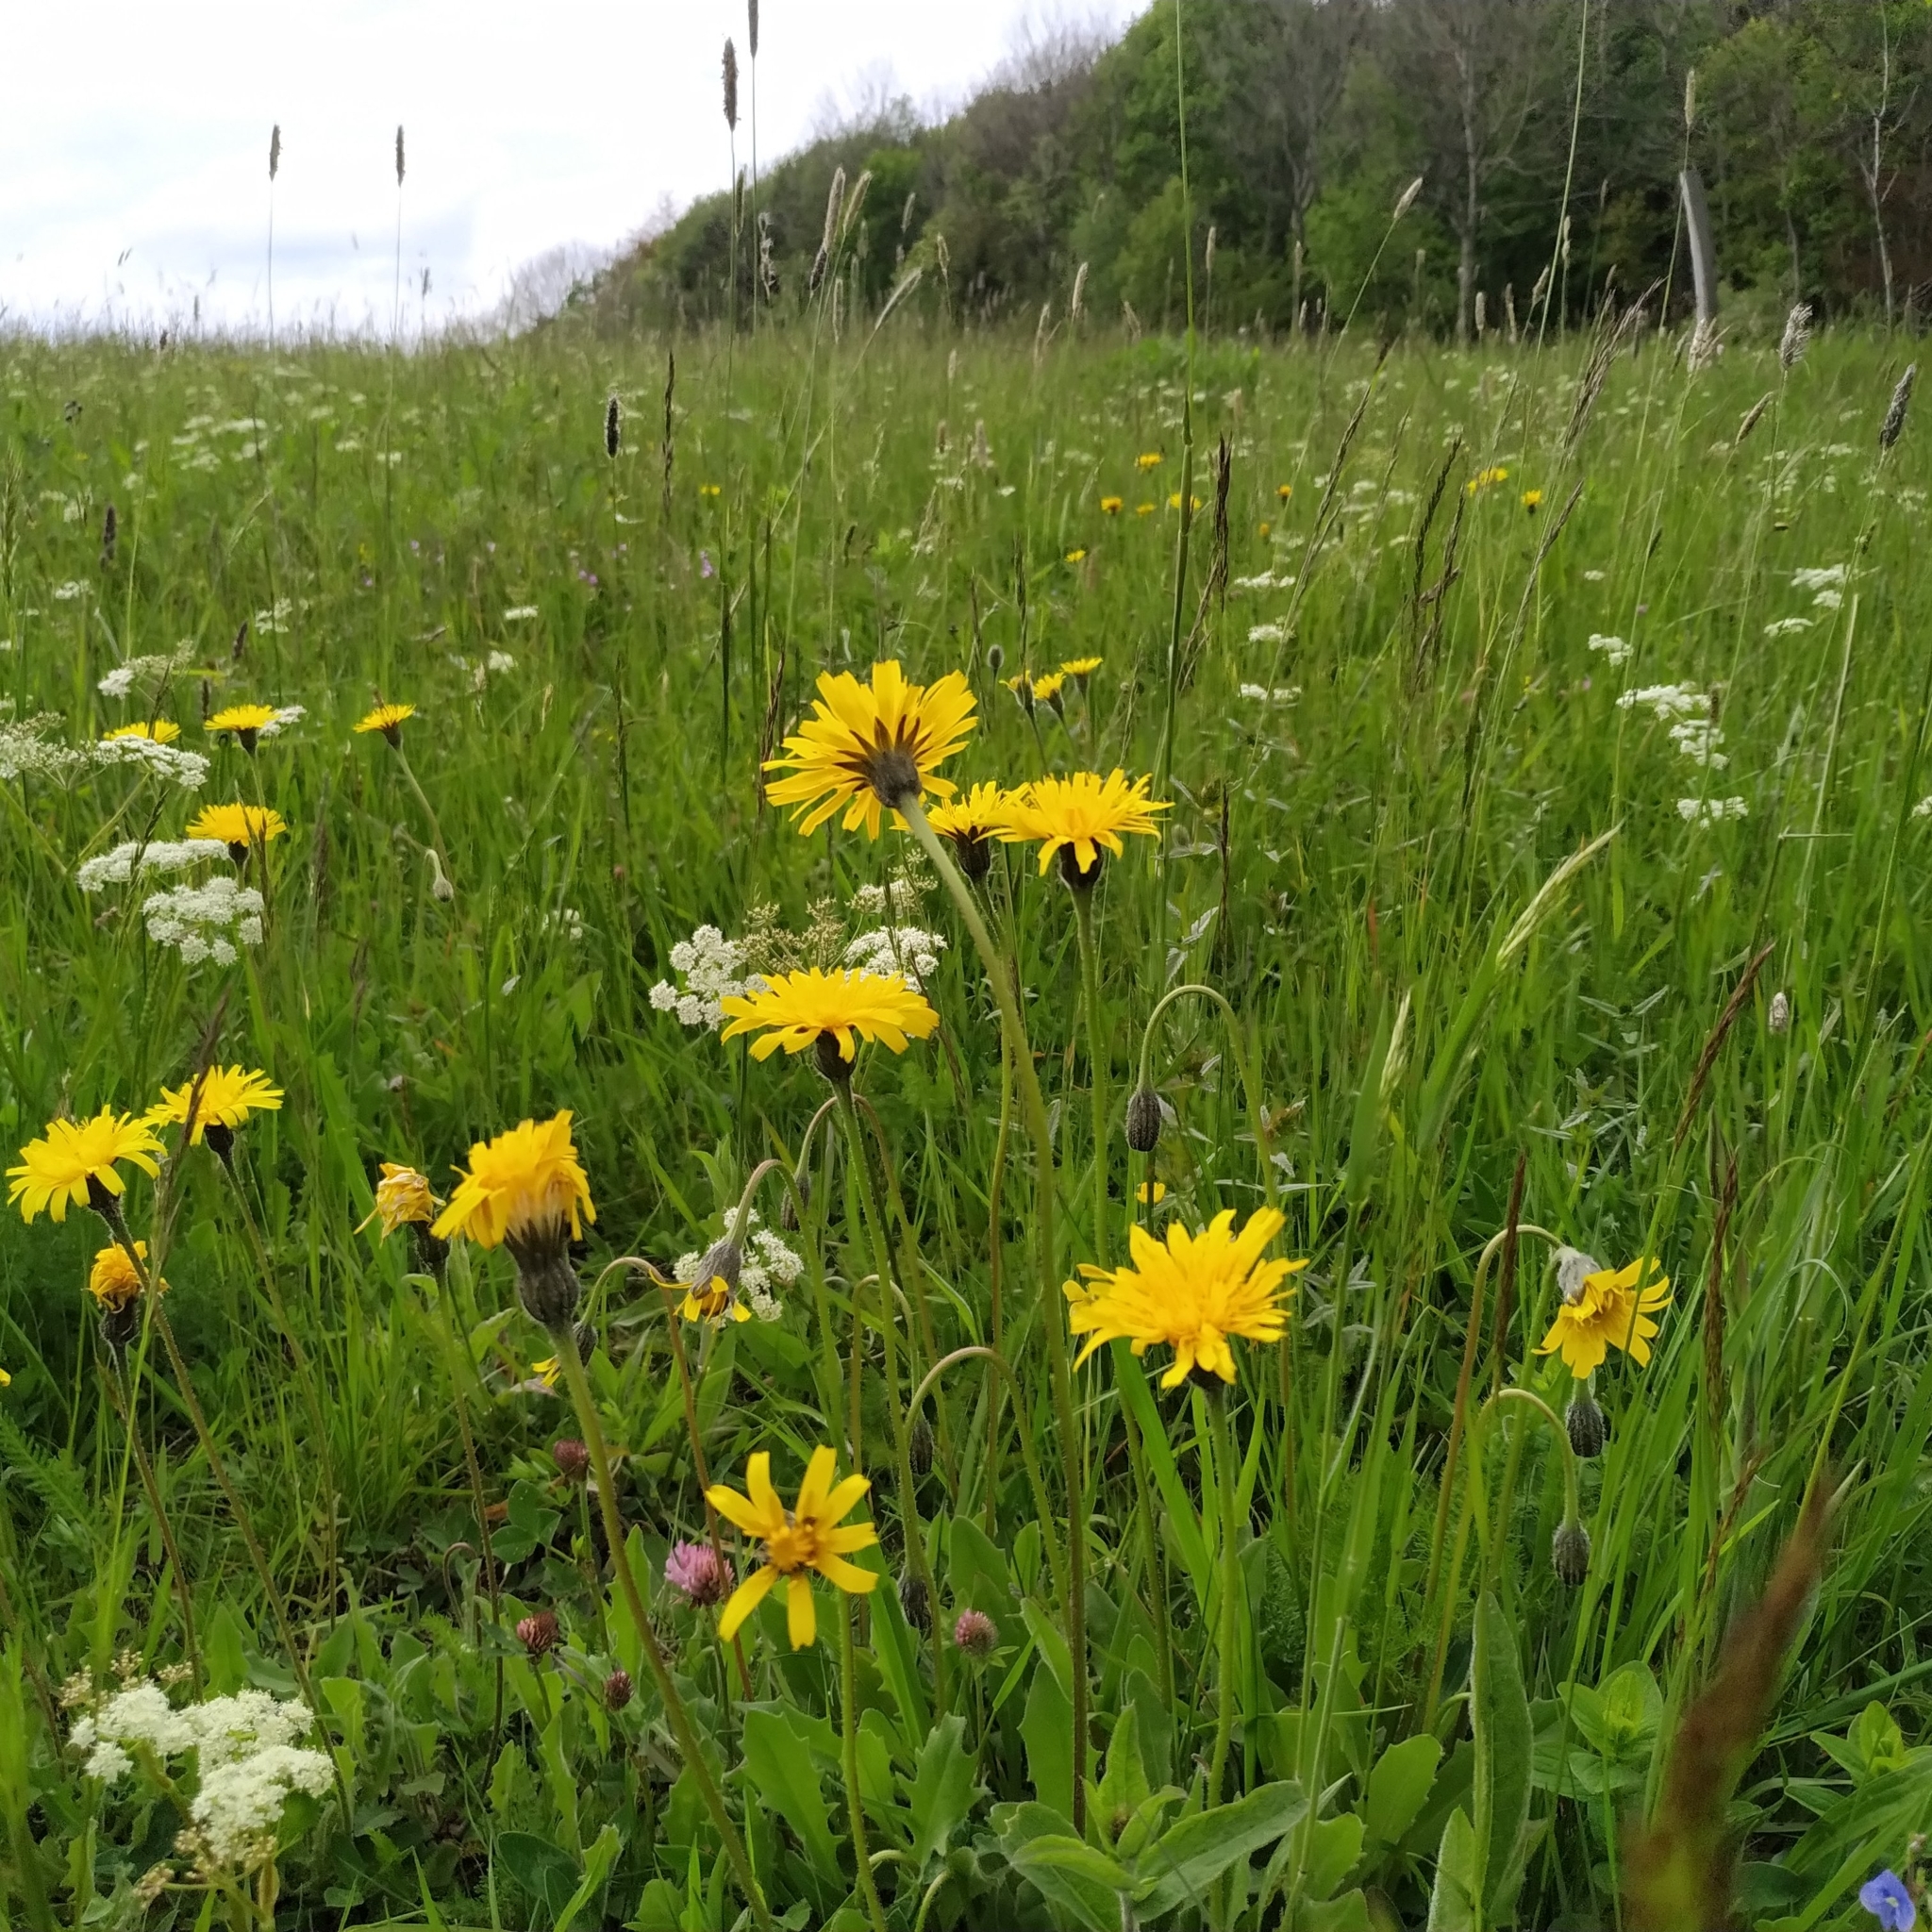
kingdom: Plantae
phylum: Tracheophyta
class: Magnoliopsida
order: Asterales
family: Asteraceae
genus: Leontodon
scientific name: Leontodon hispidus
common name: Rough hawkbit
